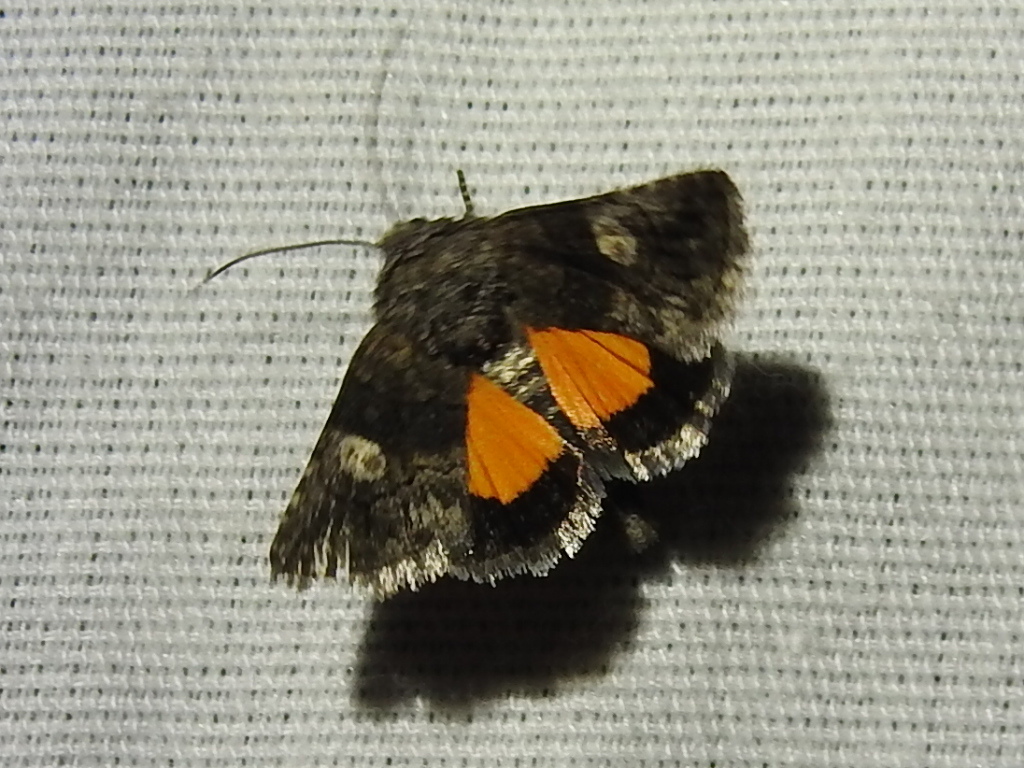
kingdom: Animalia
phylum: Arthropoda
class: Insecta
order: Lepidoptera
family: Noctuidae
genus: Copanarta
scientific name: Copanarta aurea
